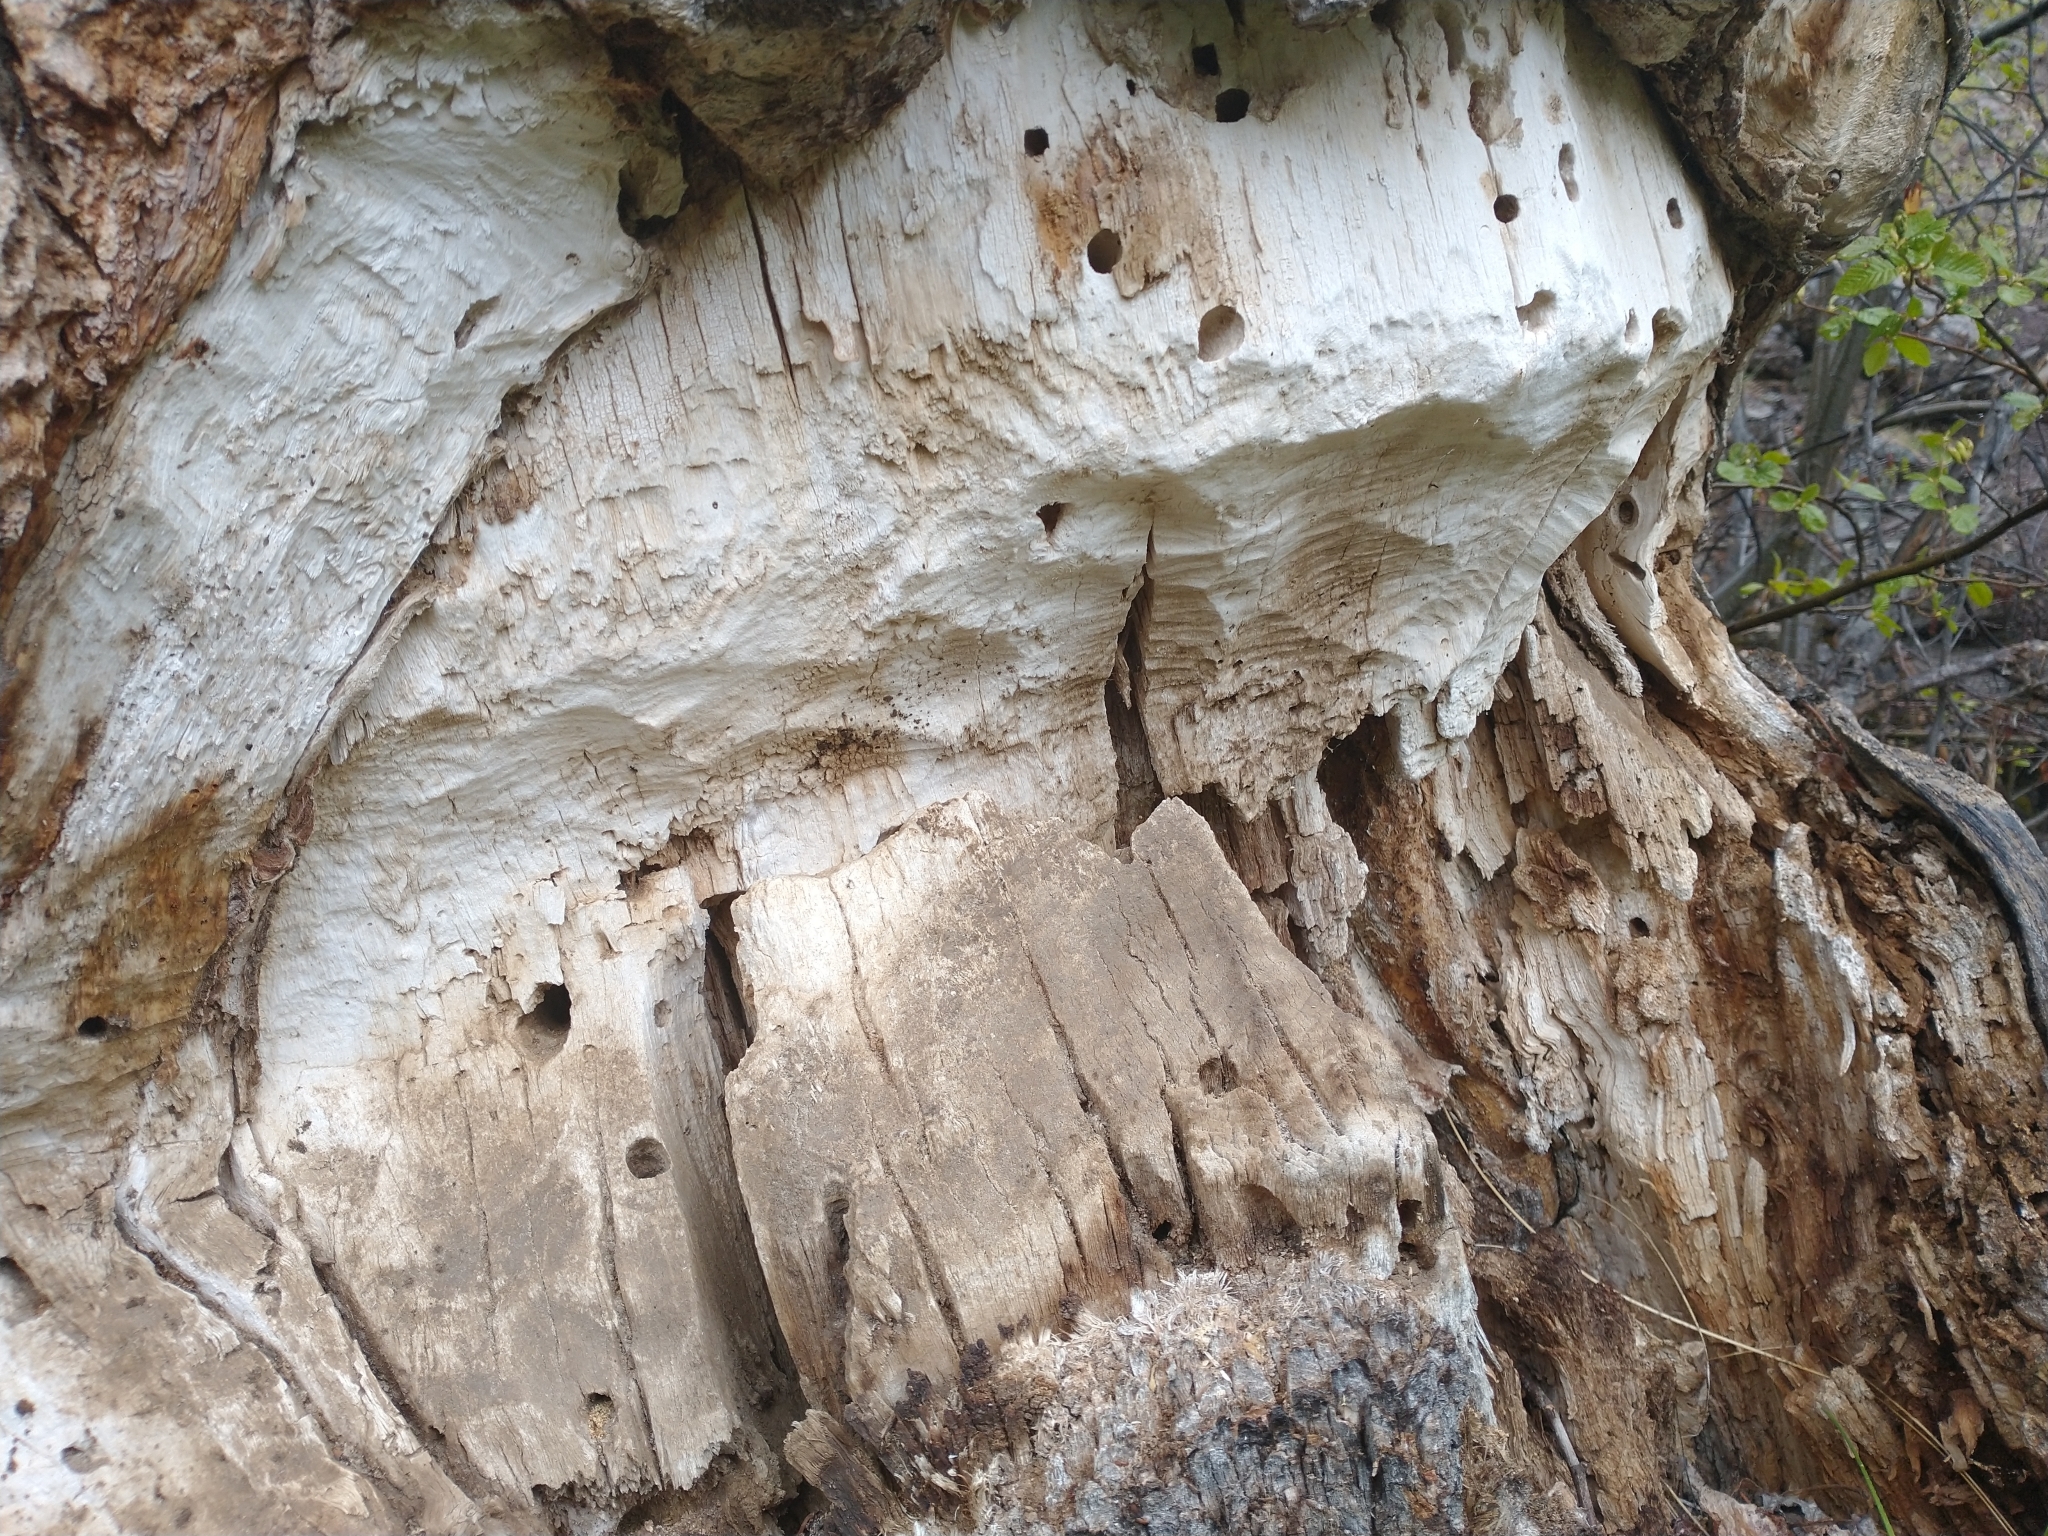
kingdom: Animalia
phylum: Chordata
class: Mammalia
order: Rodentia
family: Castoridae
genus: Castor
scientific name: Castor canadensis
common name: American beaver
